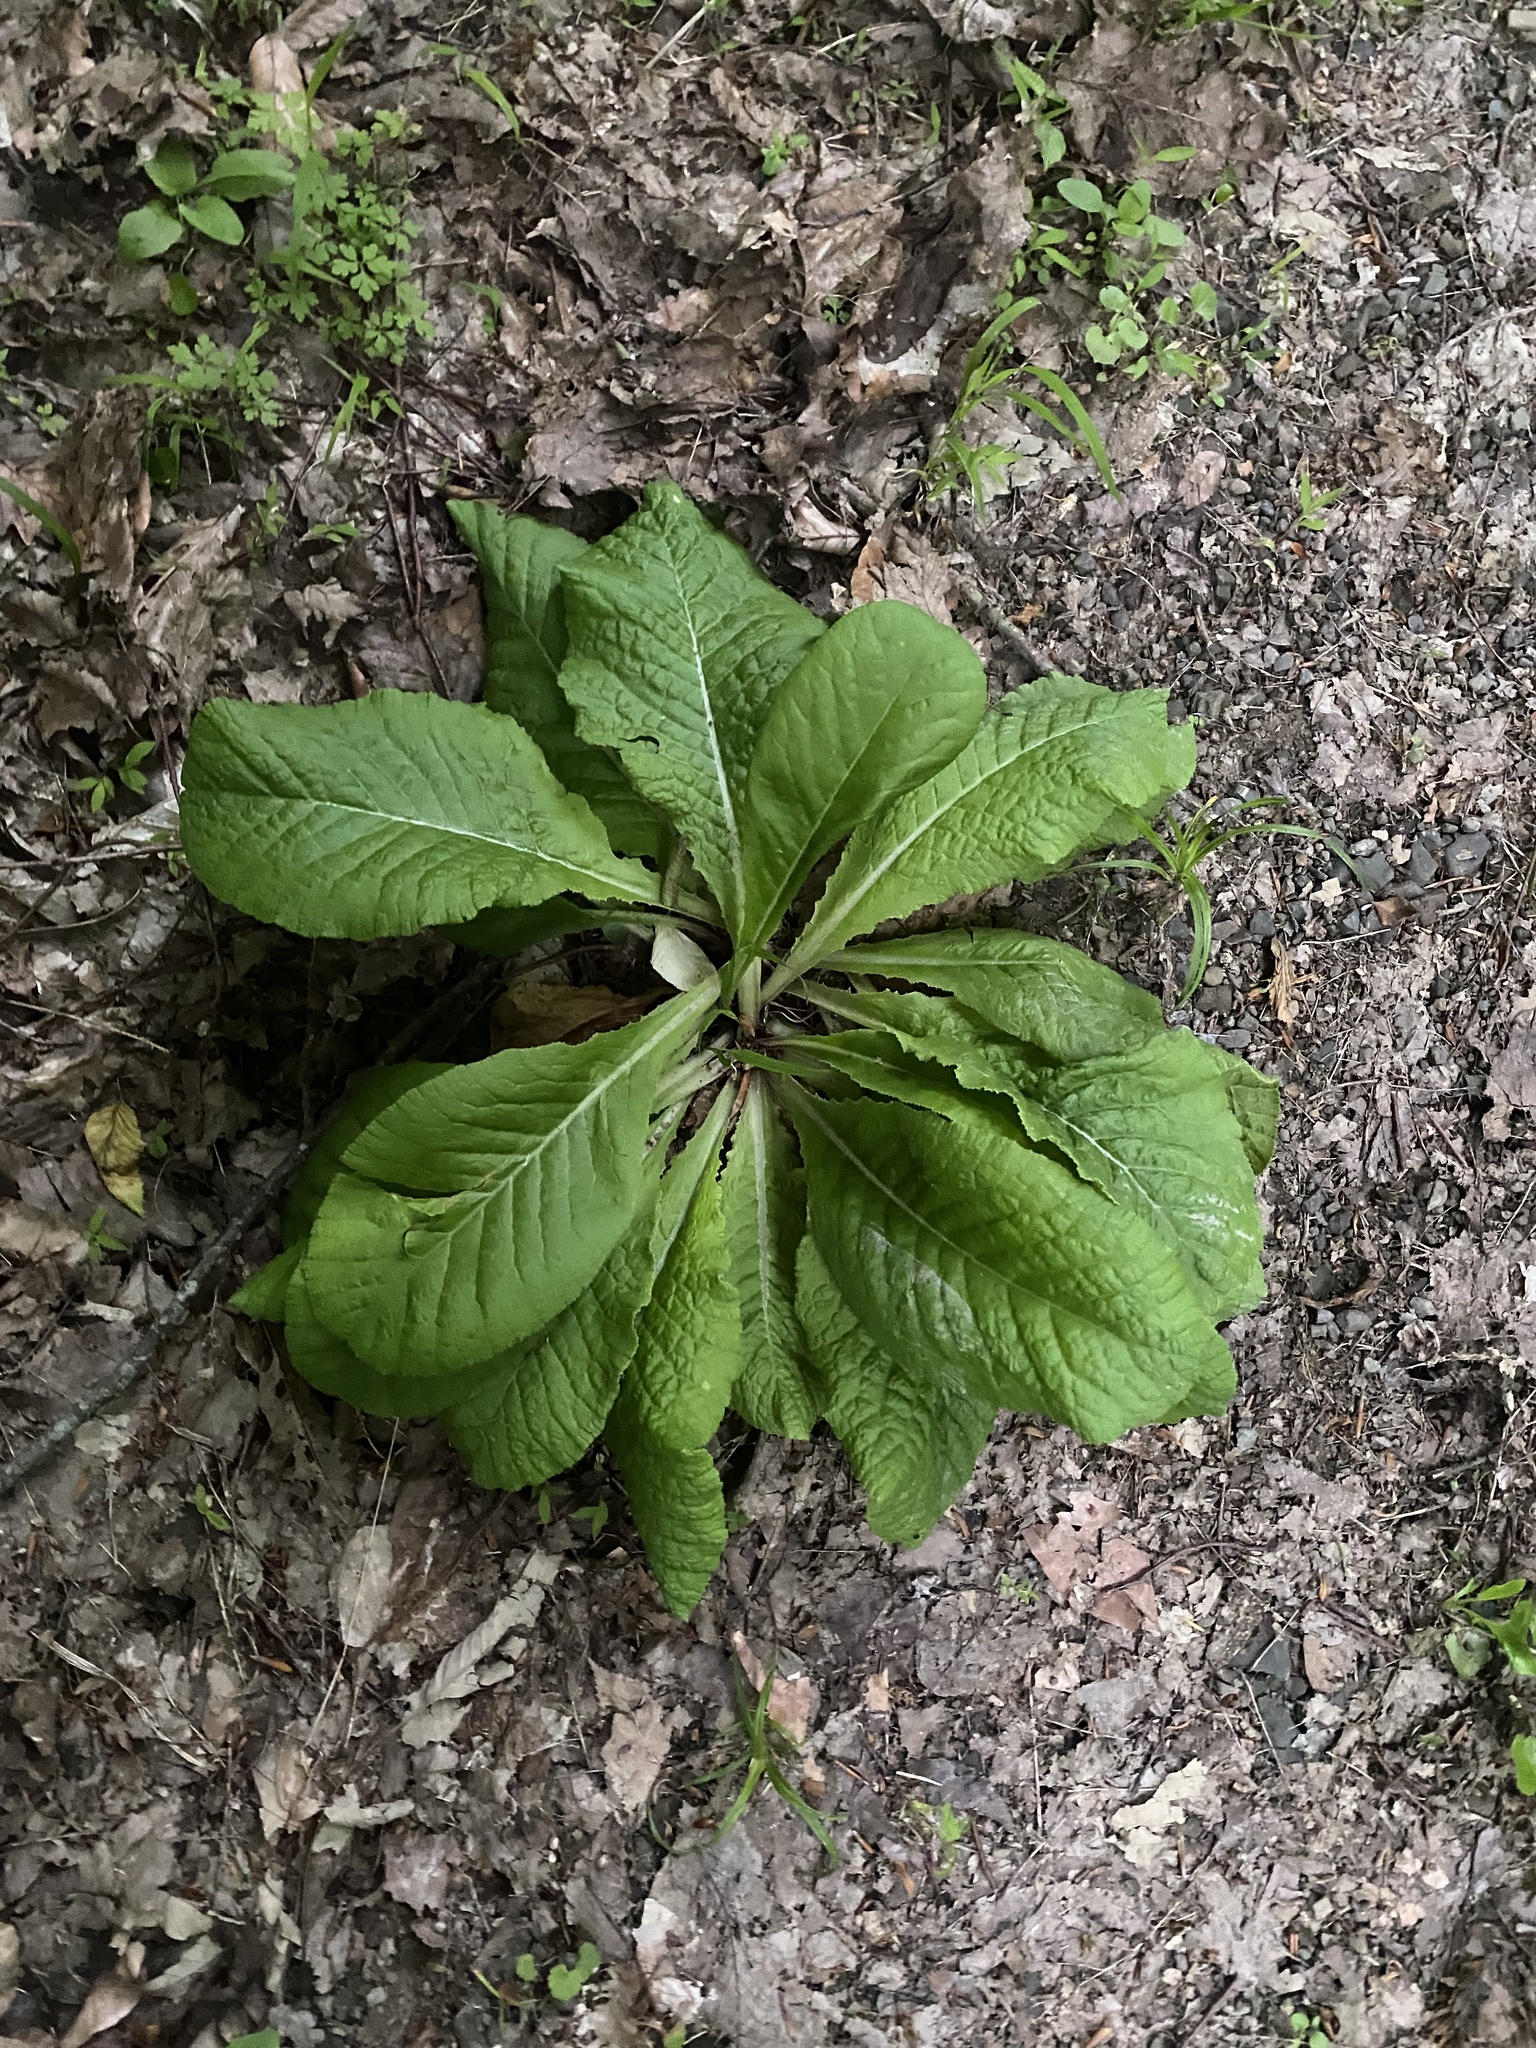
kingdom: Plantae
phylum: Tracheophyta
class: Magnoliopsida
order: Ericales
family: Primulaceae
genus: Primula
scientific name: Primula vulgaris
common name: Primrose
